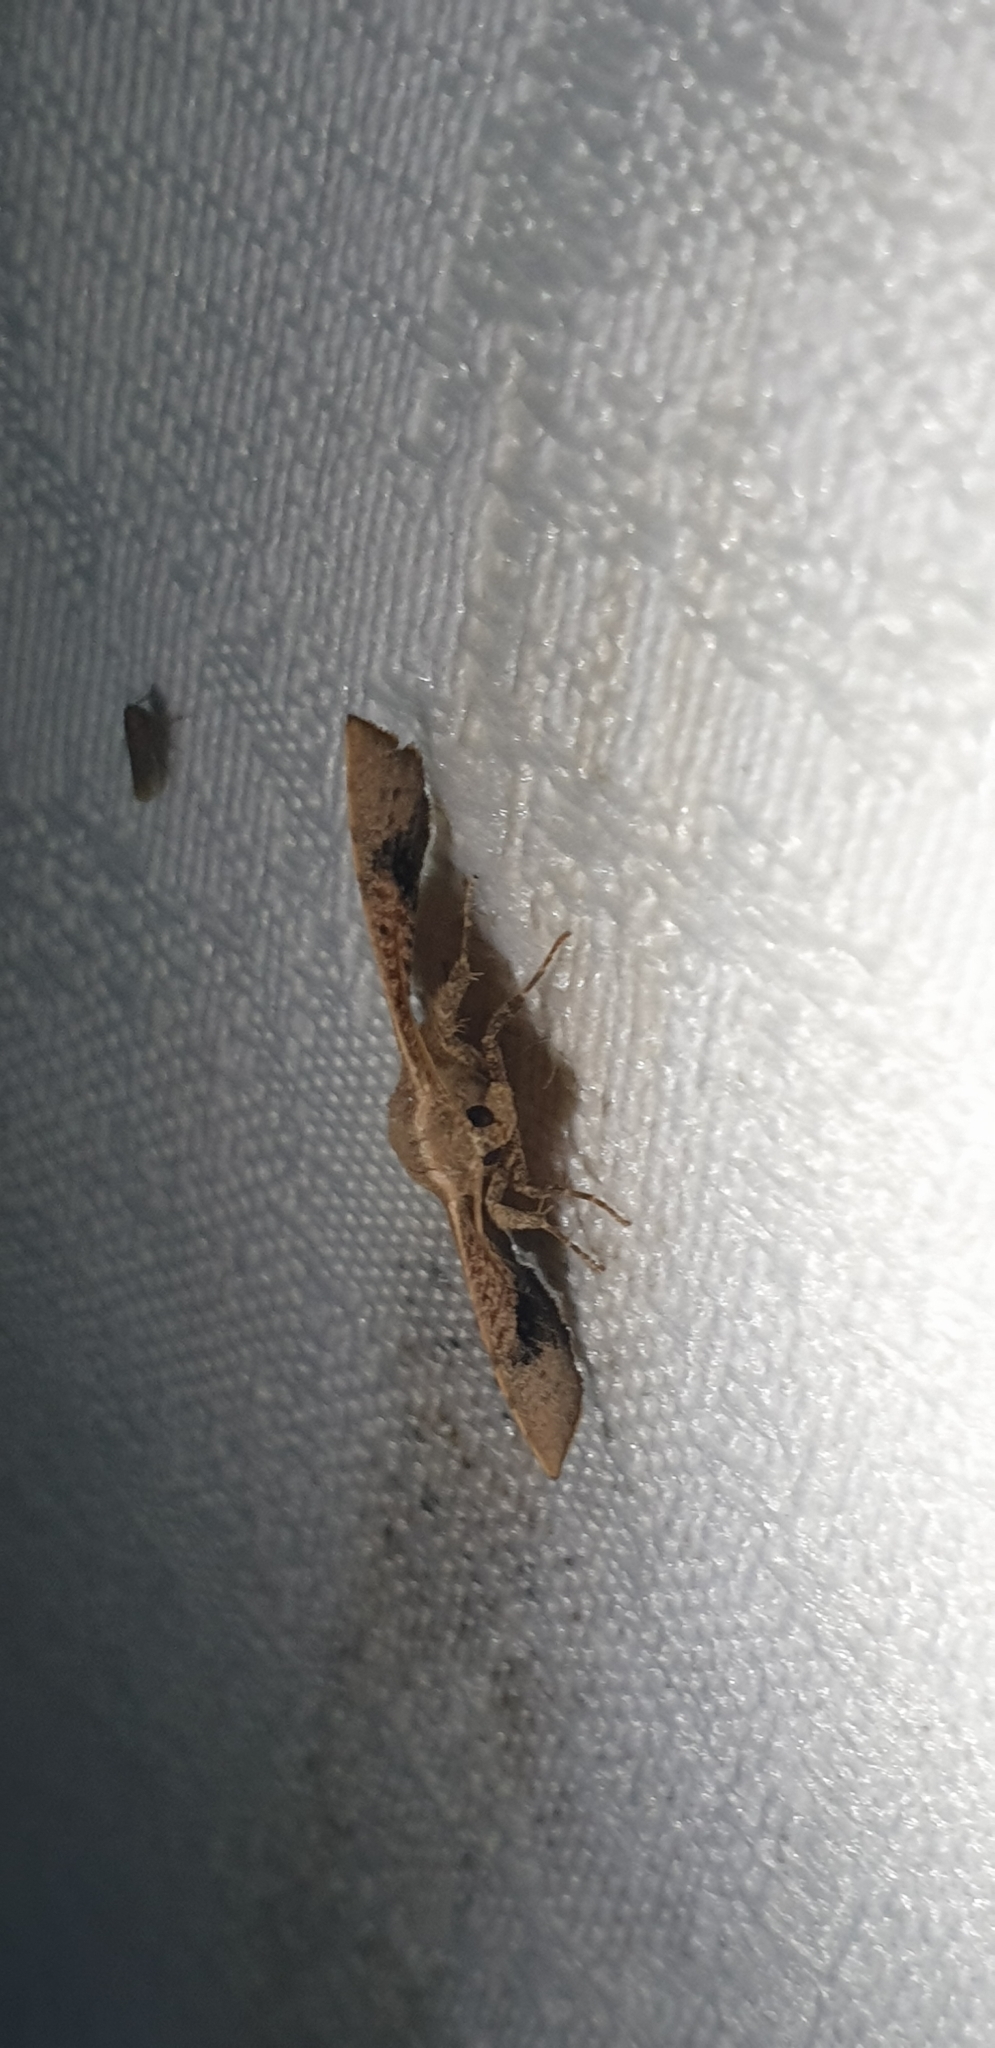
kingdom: Animalia
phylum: Arthropoda
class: Insecta
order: Lepidoptera
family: Thyrididae
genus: Aglaopus
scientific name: Aglaopus centiginosa
